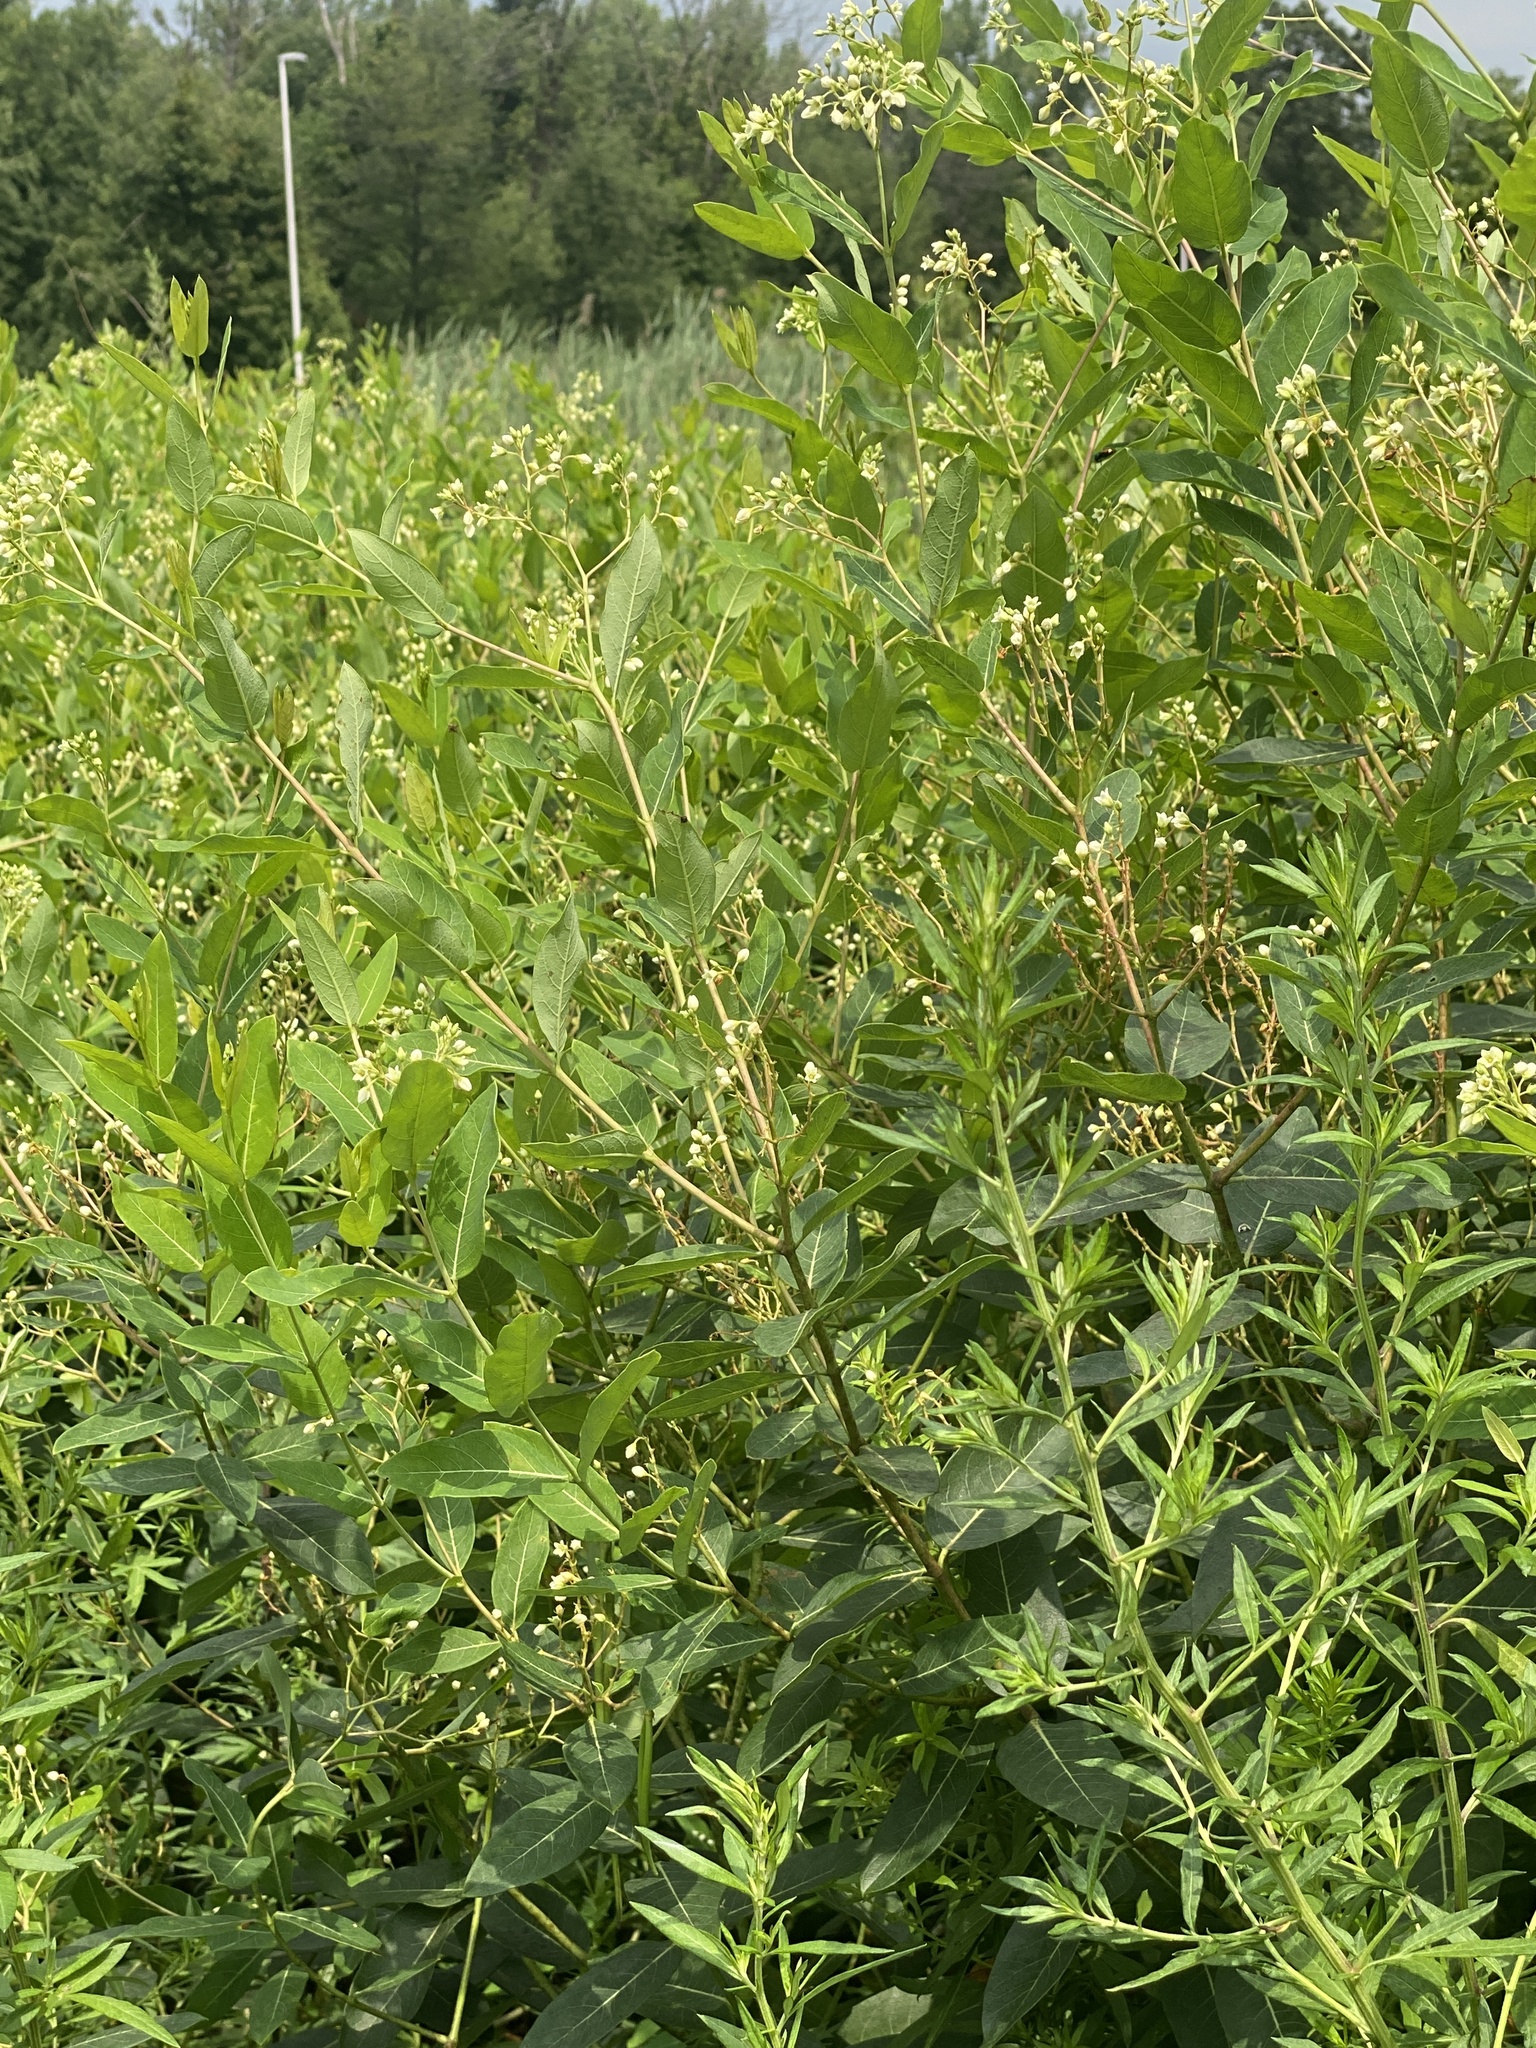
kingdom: Plantae
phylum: Tracheophyta
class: Magnoliopsida
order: Gentianales
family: Apocynaceae
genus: Apocynum
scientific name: Apocynum cannabinum
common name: Hemp dogbane
